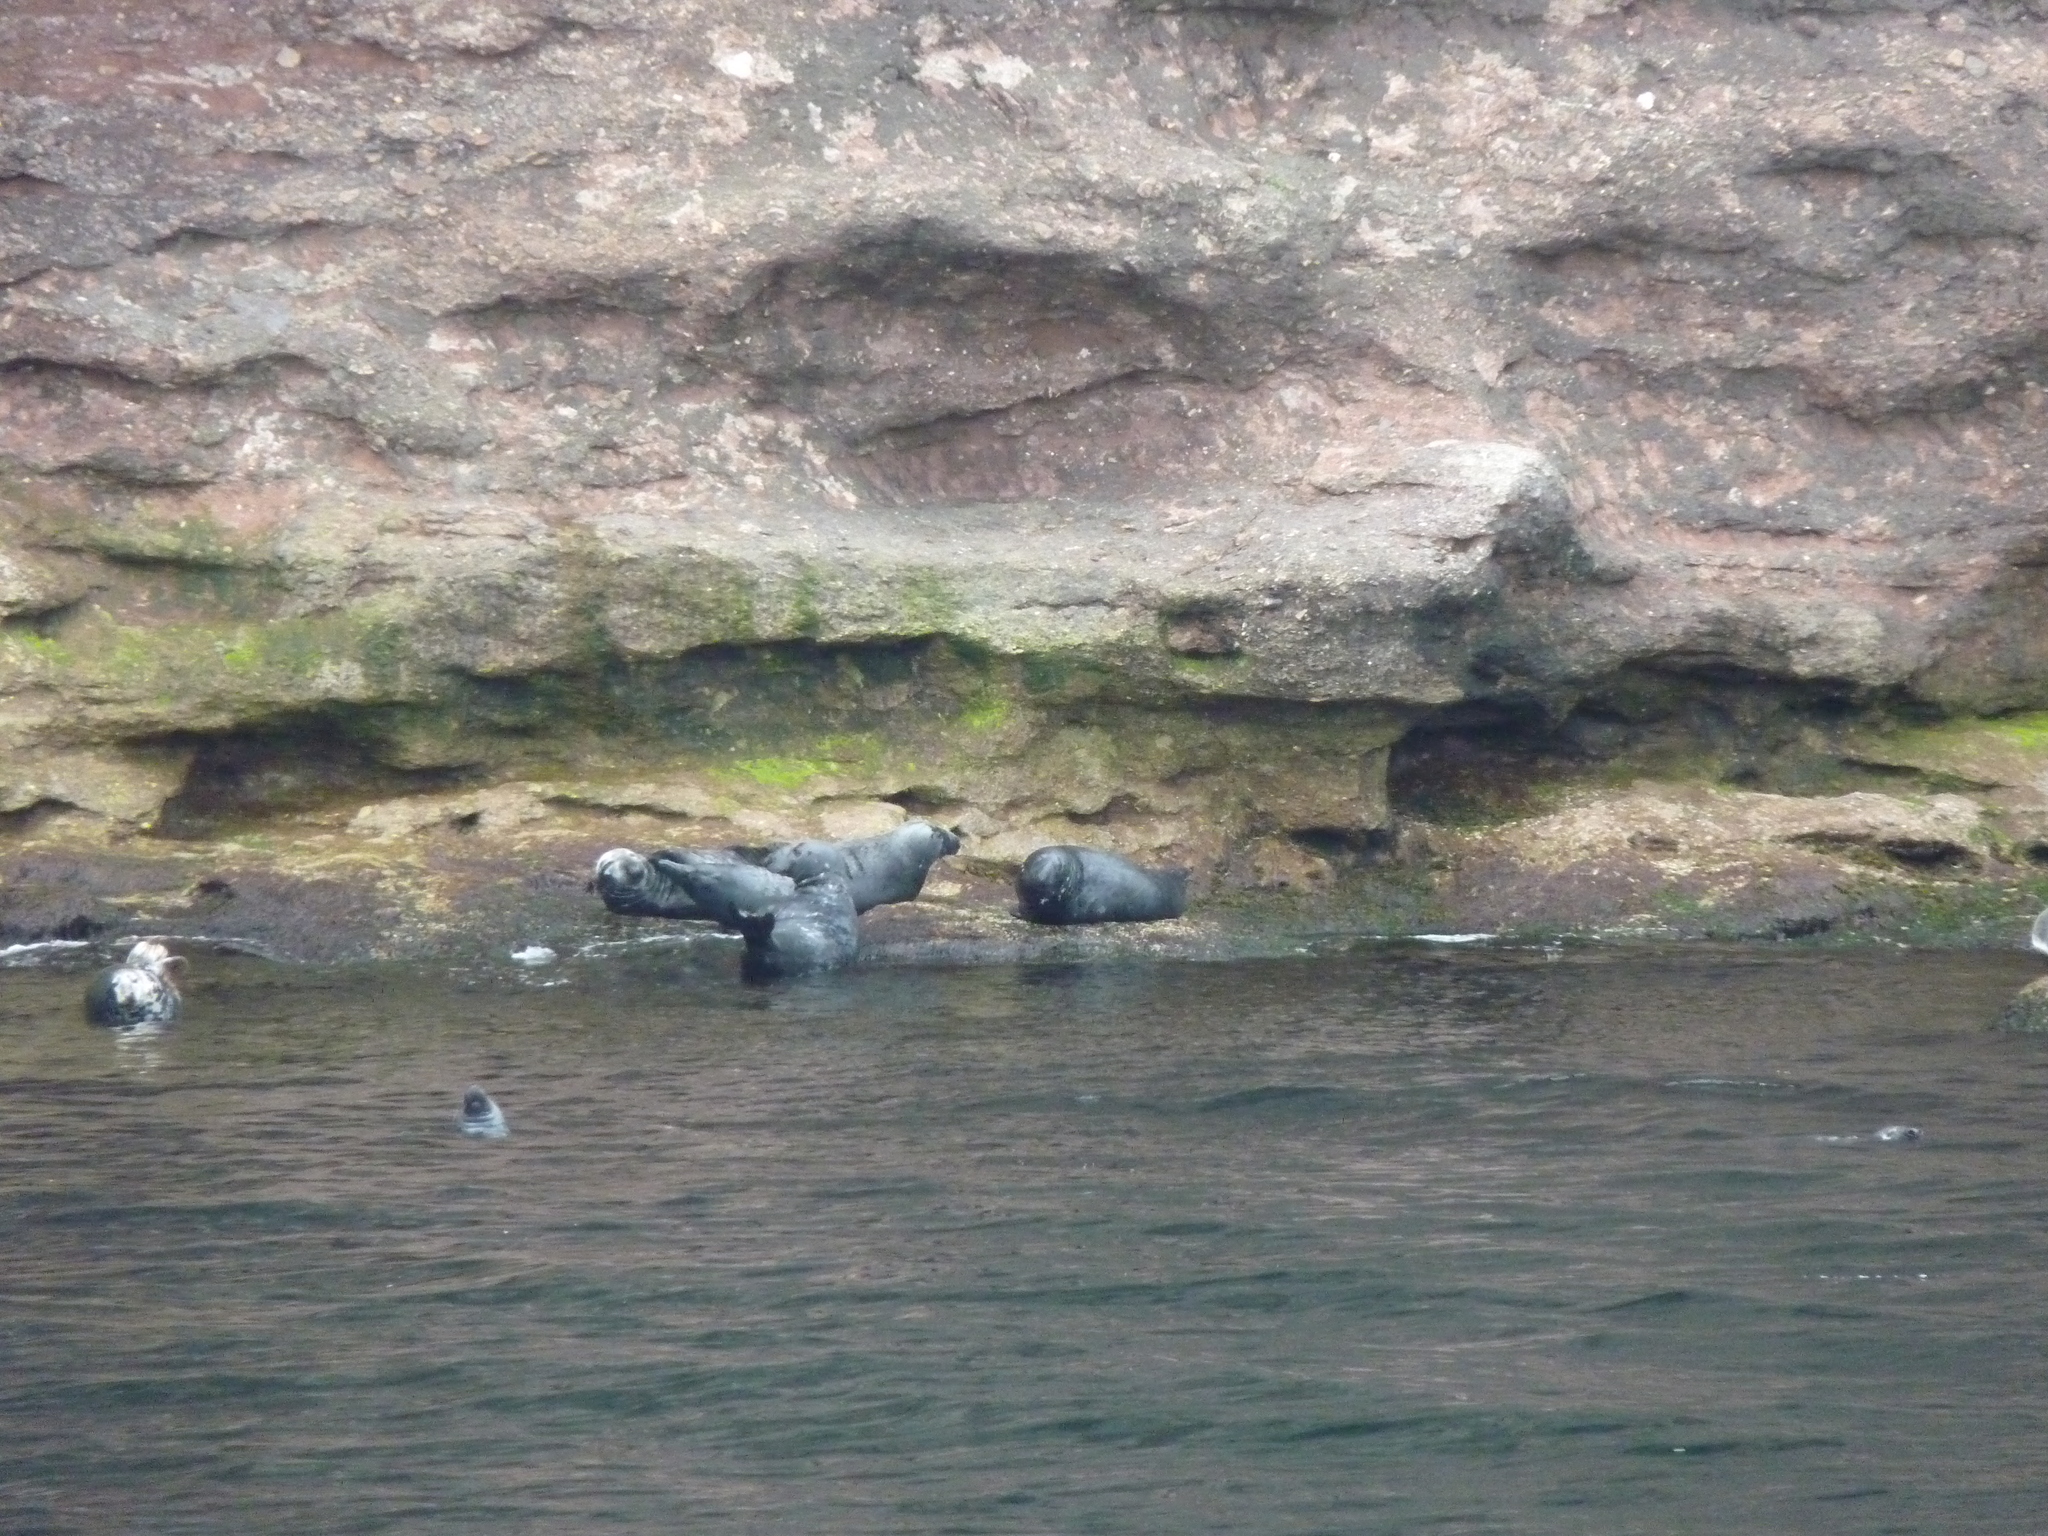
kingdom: Animalia
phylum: Chordata
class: Mammalia
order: Carnivora
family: Phocidae
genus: Halichoerus
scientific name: Halichoerus grypus
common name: Grey seal
